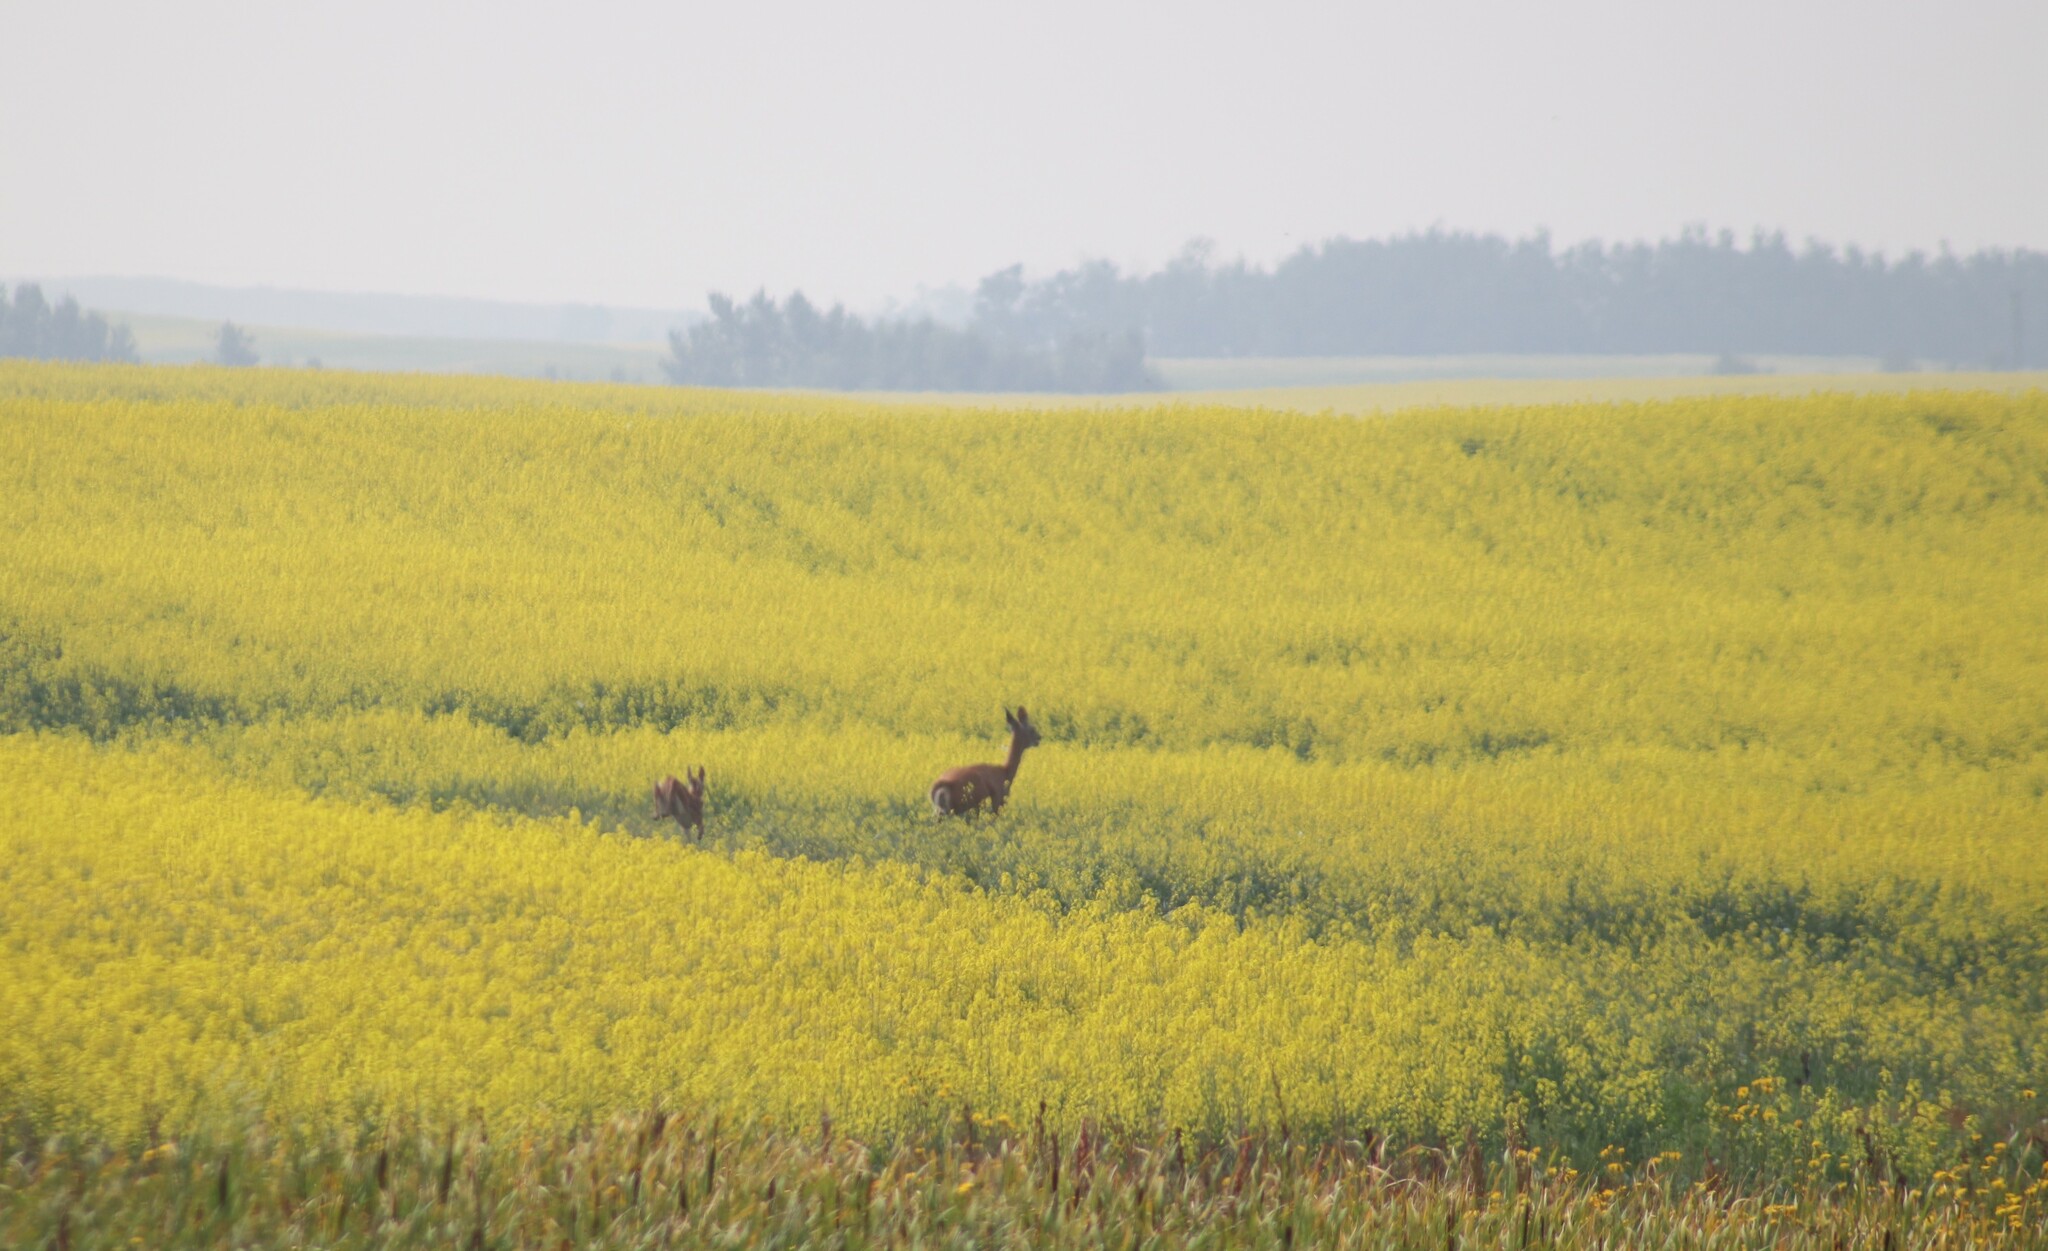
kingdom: Animalia
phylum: Chordata
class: Mammalia
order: Artiodactyla
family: Cervidae
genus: Odocoileus
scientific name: Odocoileus virginianus
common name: White-tailed deer
